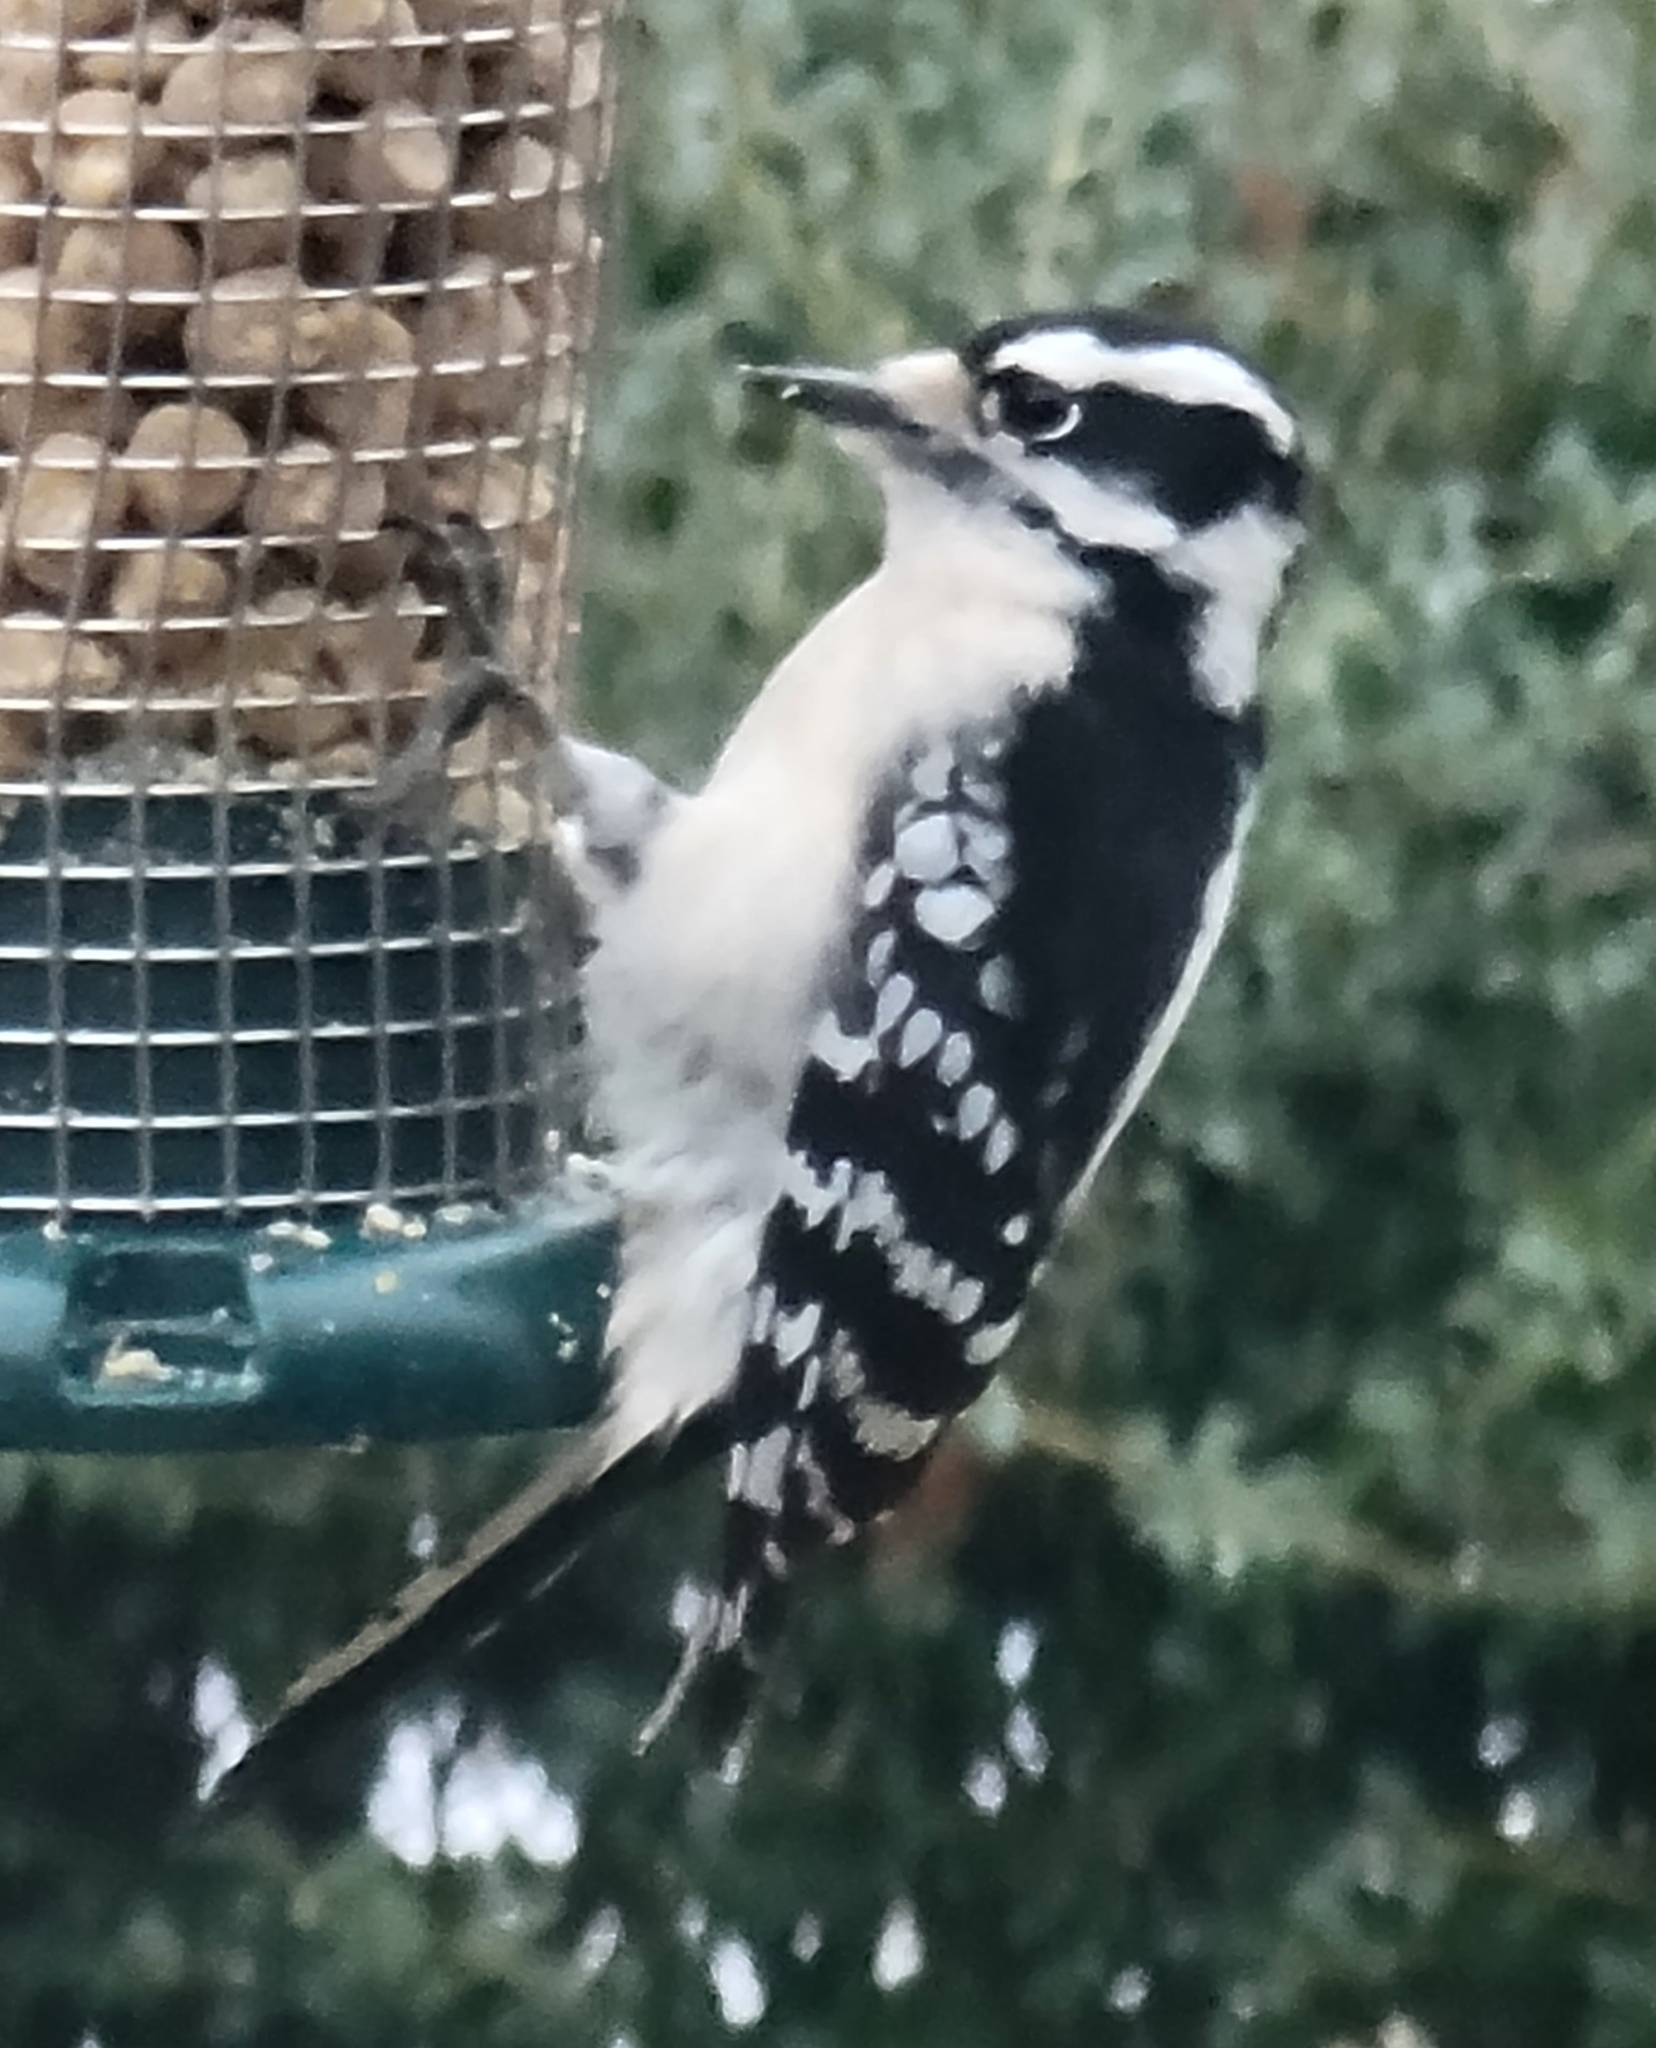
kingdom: Animalia
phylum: Chordata
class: Aves
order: Piciformes
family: Picidae
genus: Dryobates
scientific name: Dryobates pubescens
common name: Downy woodpecker
